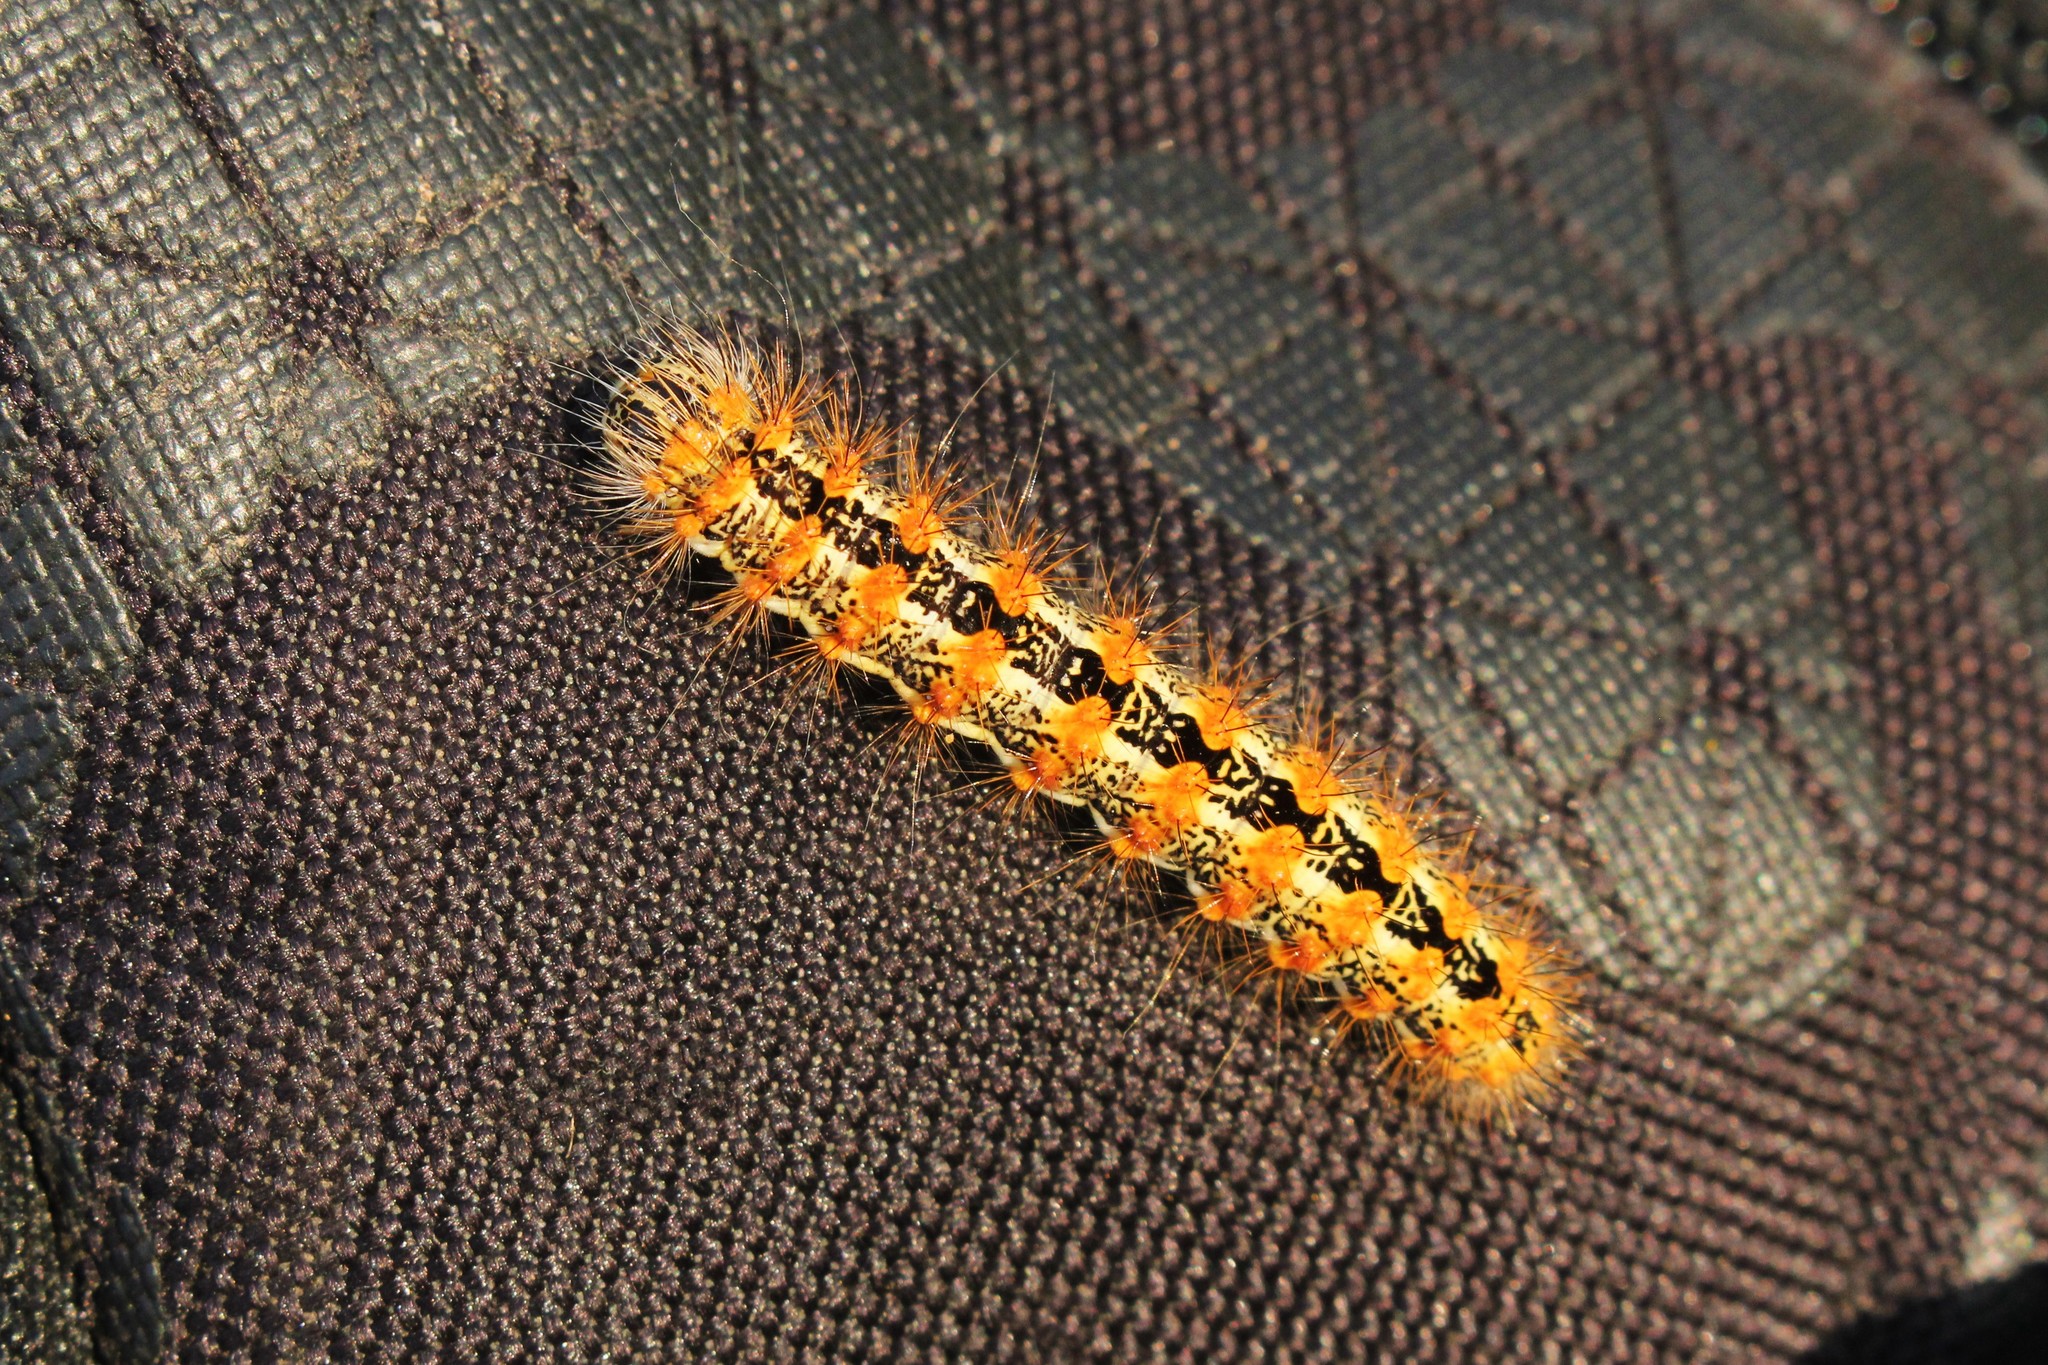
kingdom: Animalia
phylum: Arthropoda
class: Insecta
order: Lepidoptera
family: Noctuidae
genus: Acronicta
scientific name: Acronicta insularis
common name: Henry's marsh moth
